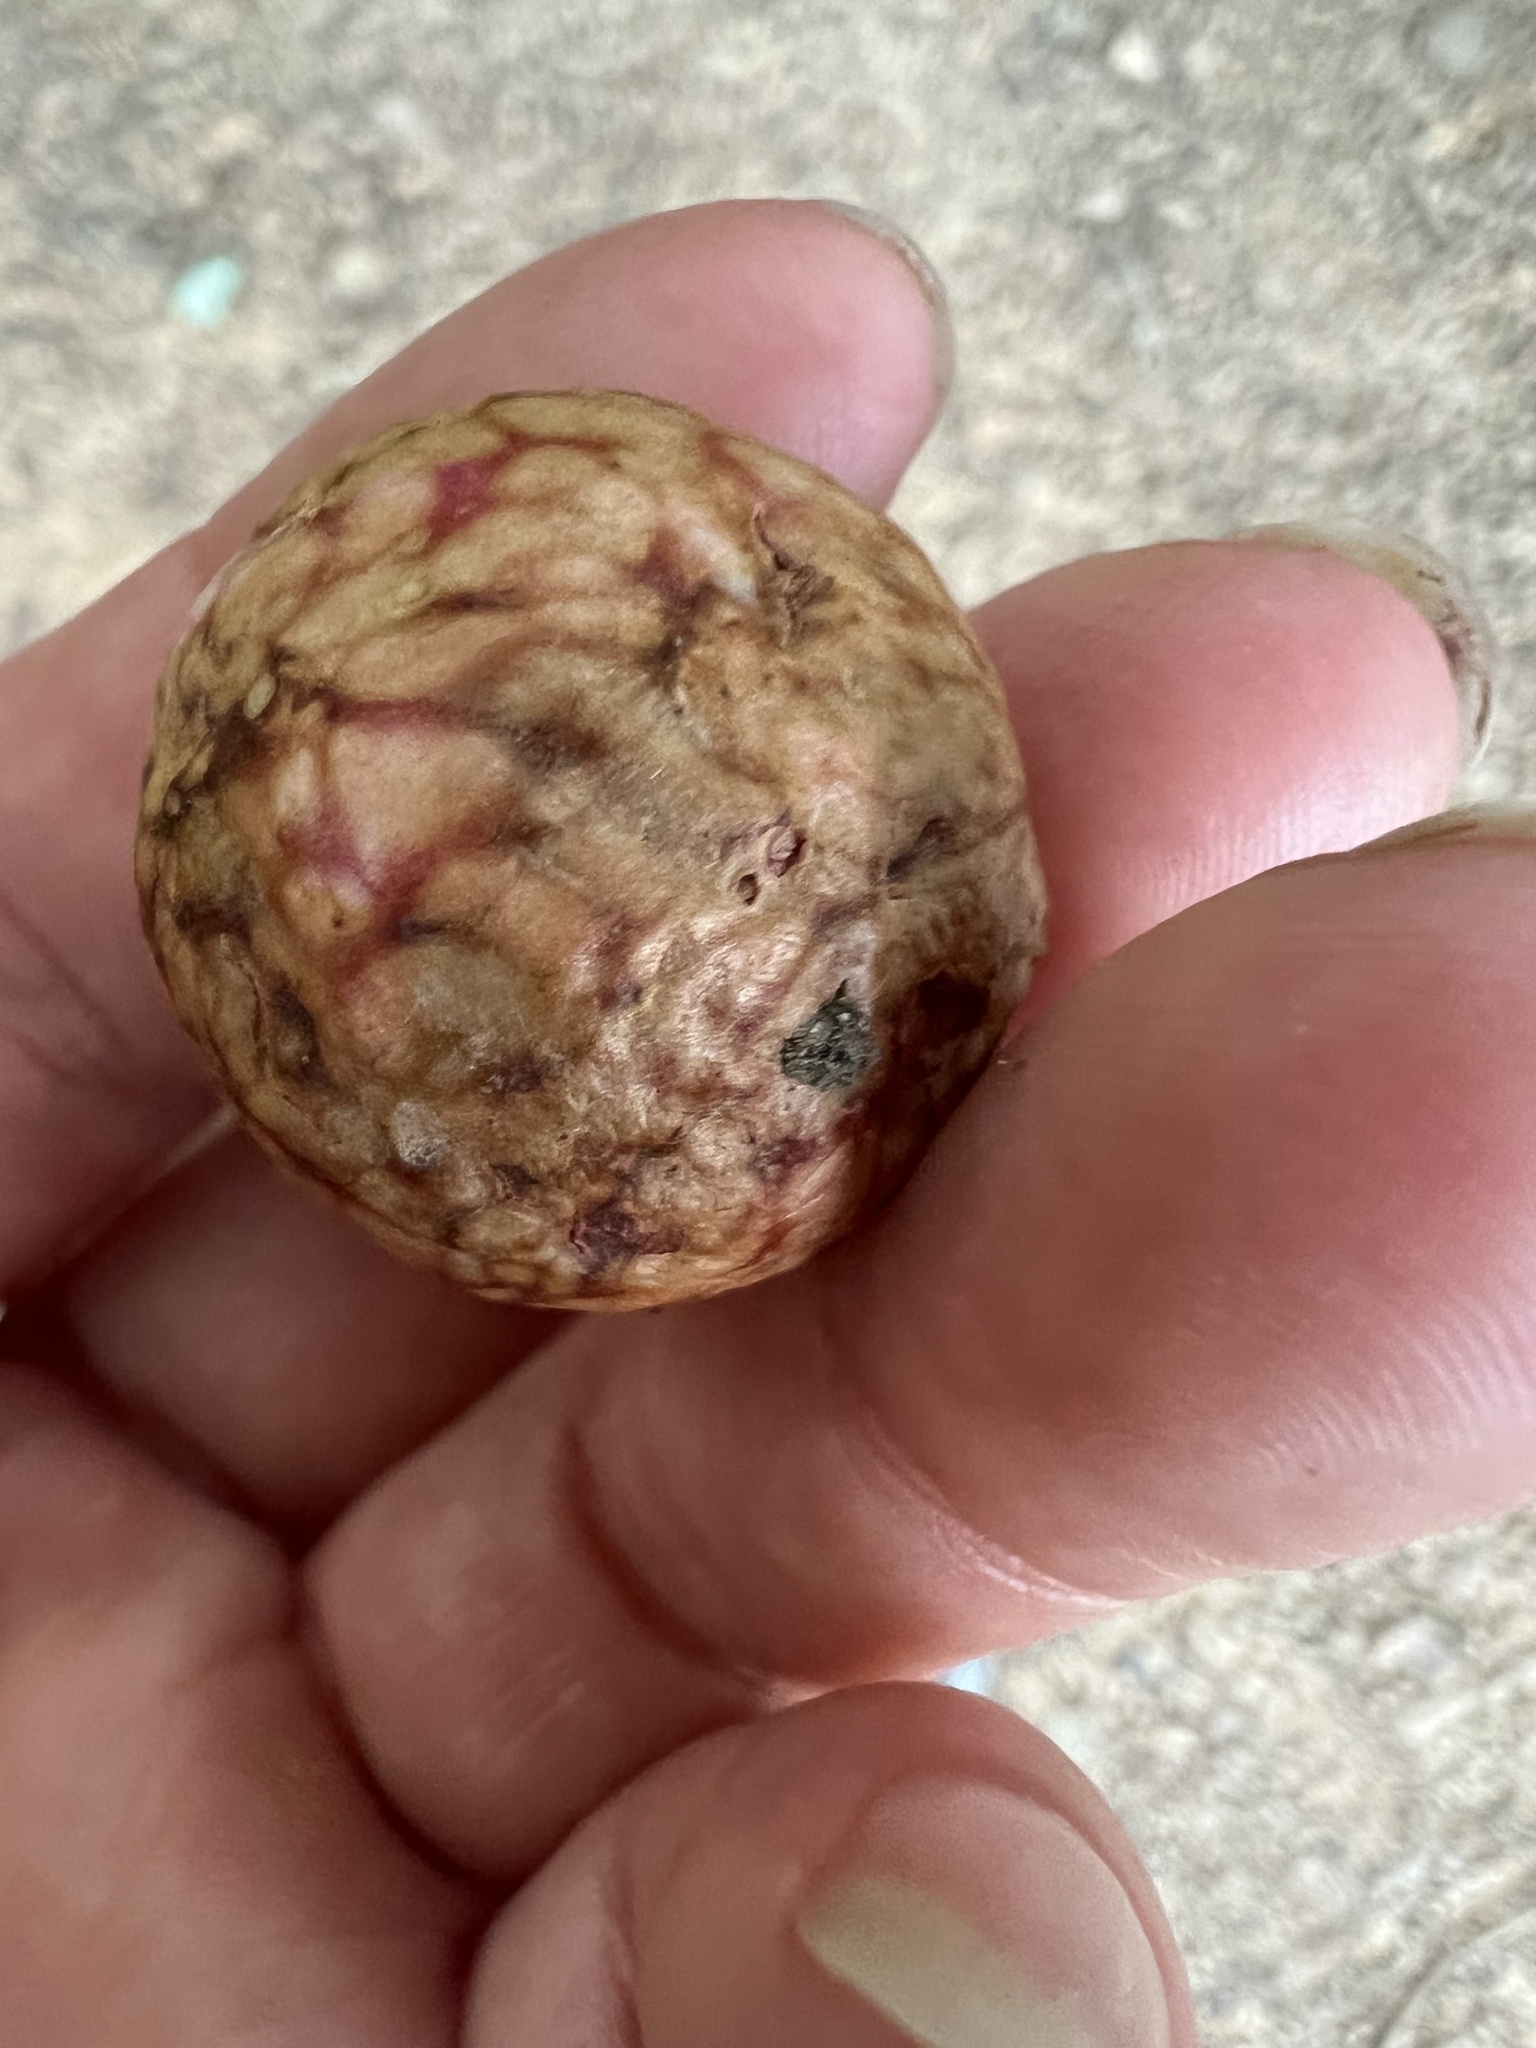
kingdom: Animalia
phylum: Arthropoda
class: Insecta
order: Hymenoptera
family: Cynipidae
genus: Amphibolips
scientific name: Amphibolips
